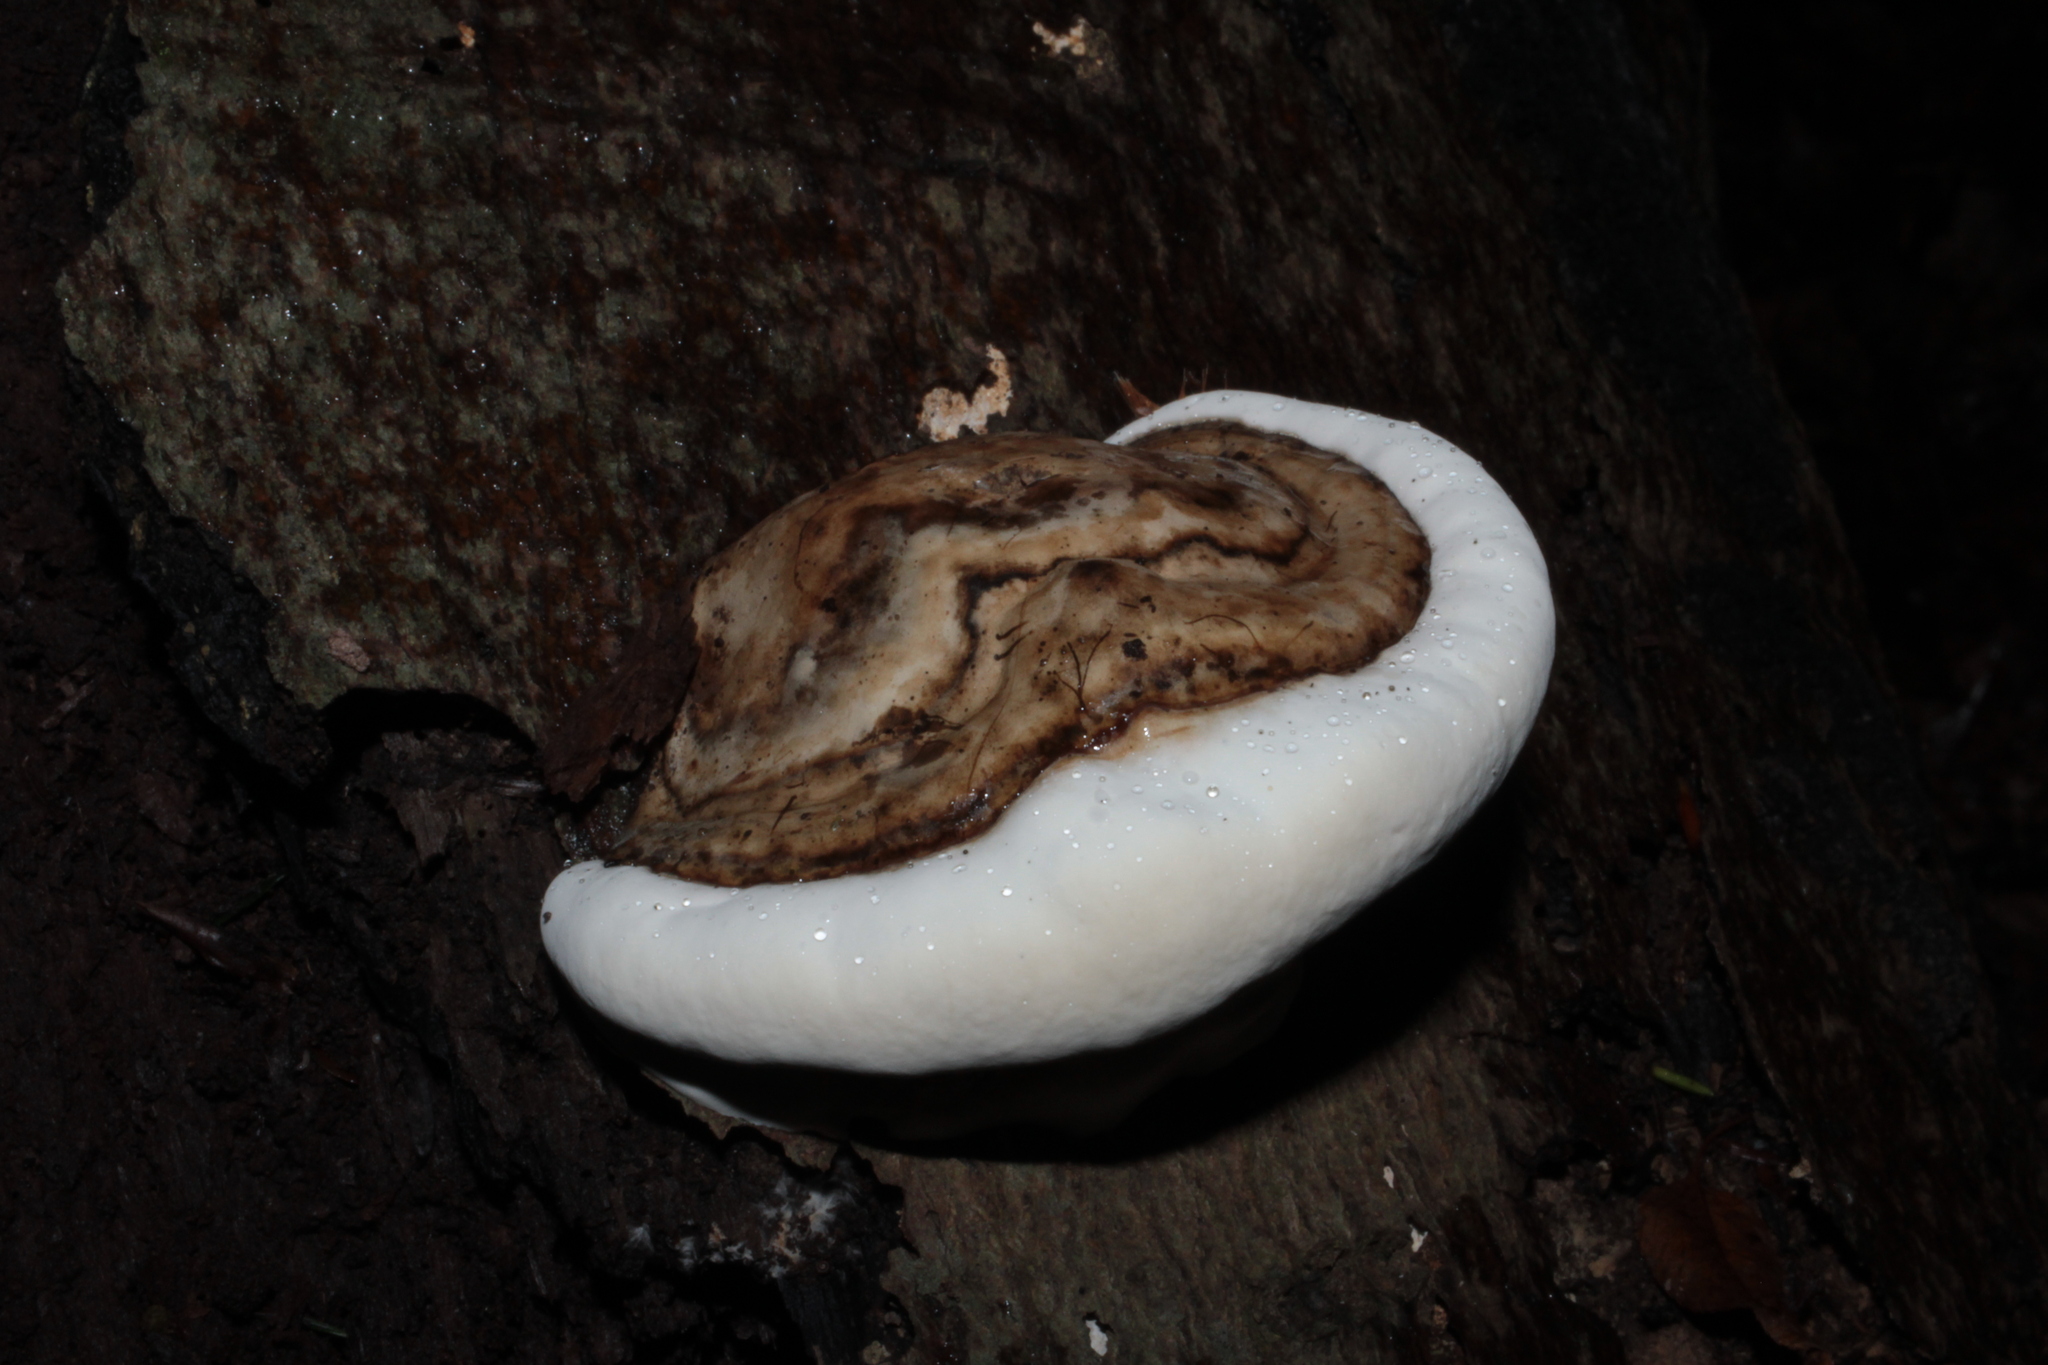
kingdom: Fungi
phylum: Basidiomycota
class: Agaricomycetes
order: Polyporales
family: Polyporaceae
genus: Ganoderma
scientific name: Ganoderma lobatum
